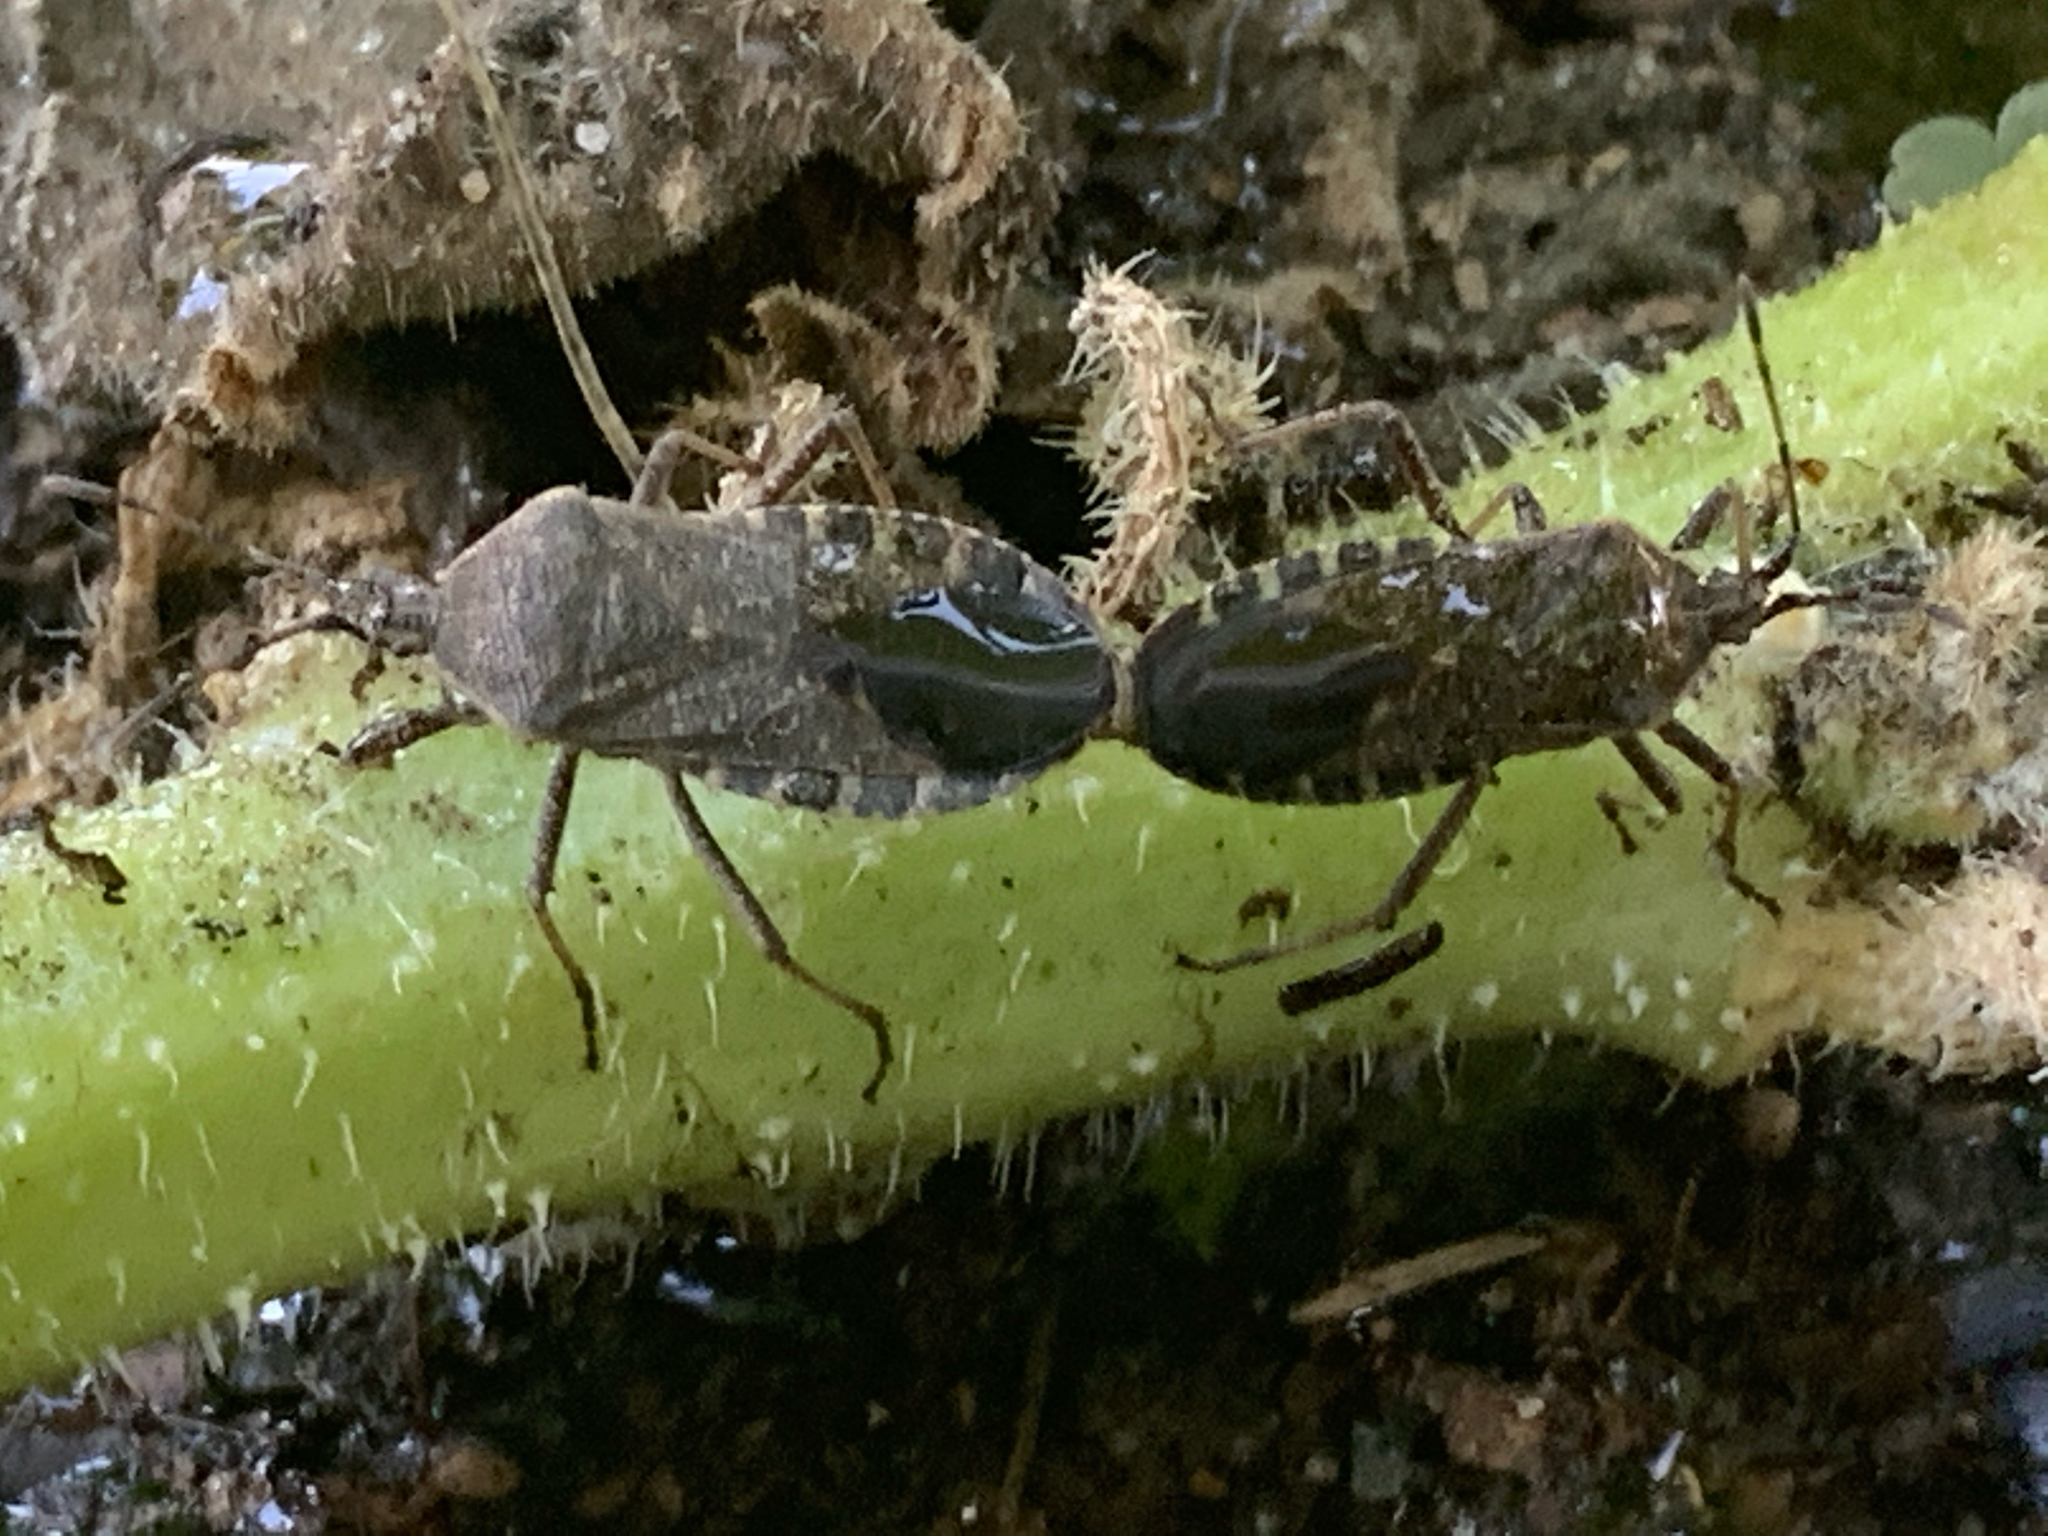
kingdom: Animalia
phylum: Arthropoda
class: Insecta
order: Hemiptera
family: Coreidae
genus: Anasa
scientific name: Anasa tristis
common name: Squash bug
